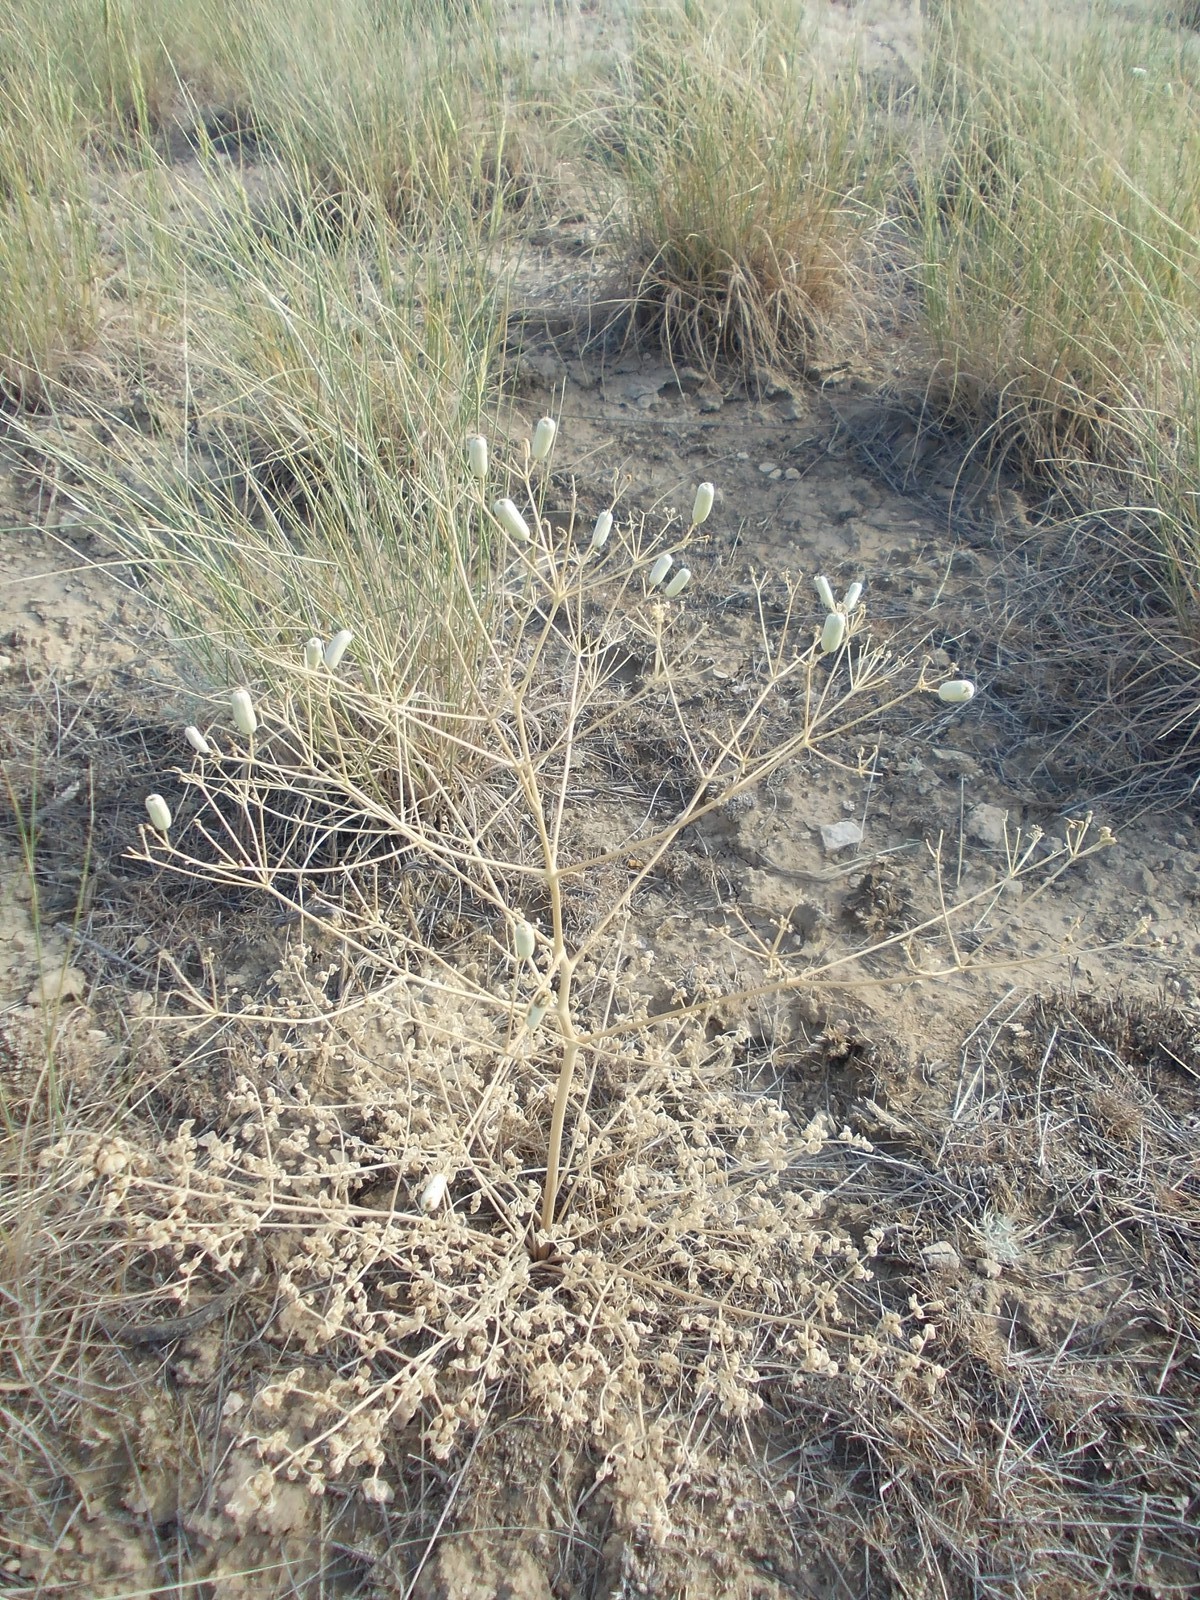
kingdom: Plantae
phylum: Tracheophyta
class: Magnoliopsida
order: Apiales
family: Apiaceae
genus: Prangos
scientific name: Prangos odontalgica
